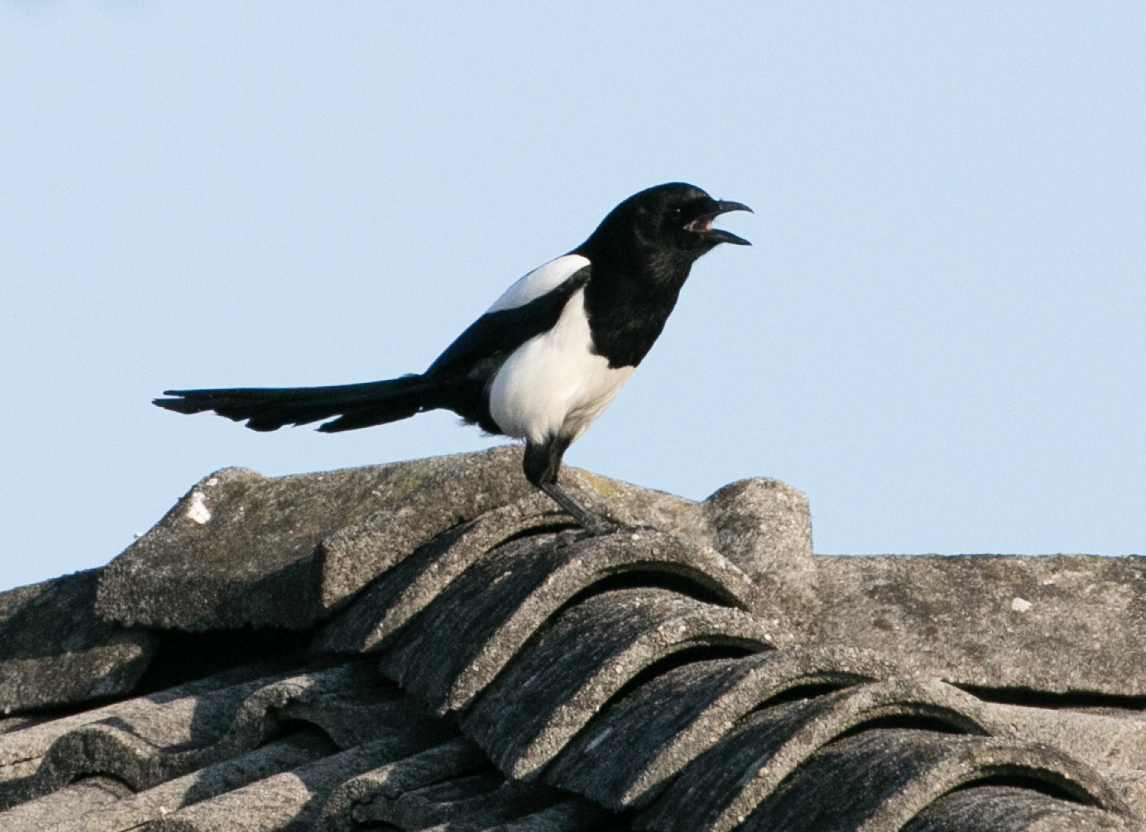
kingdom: Animalia
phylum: Chordata
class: Aves
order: Passeriformes
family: Corvidae
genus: Pica
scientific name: Pica pica
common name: Eurasian magpie
